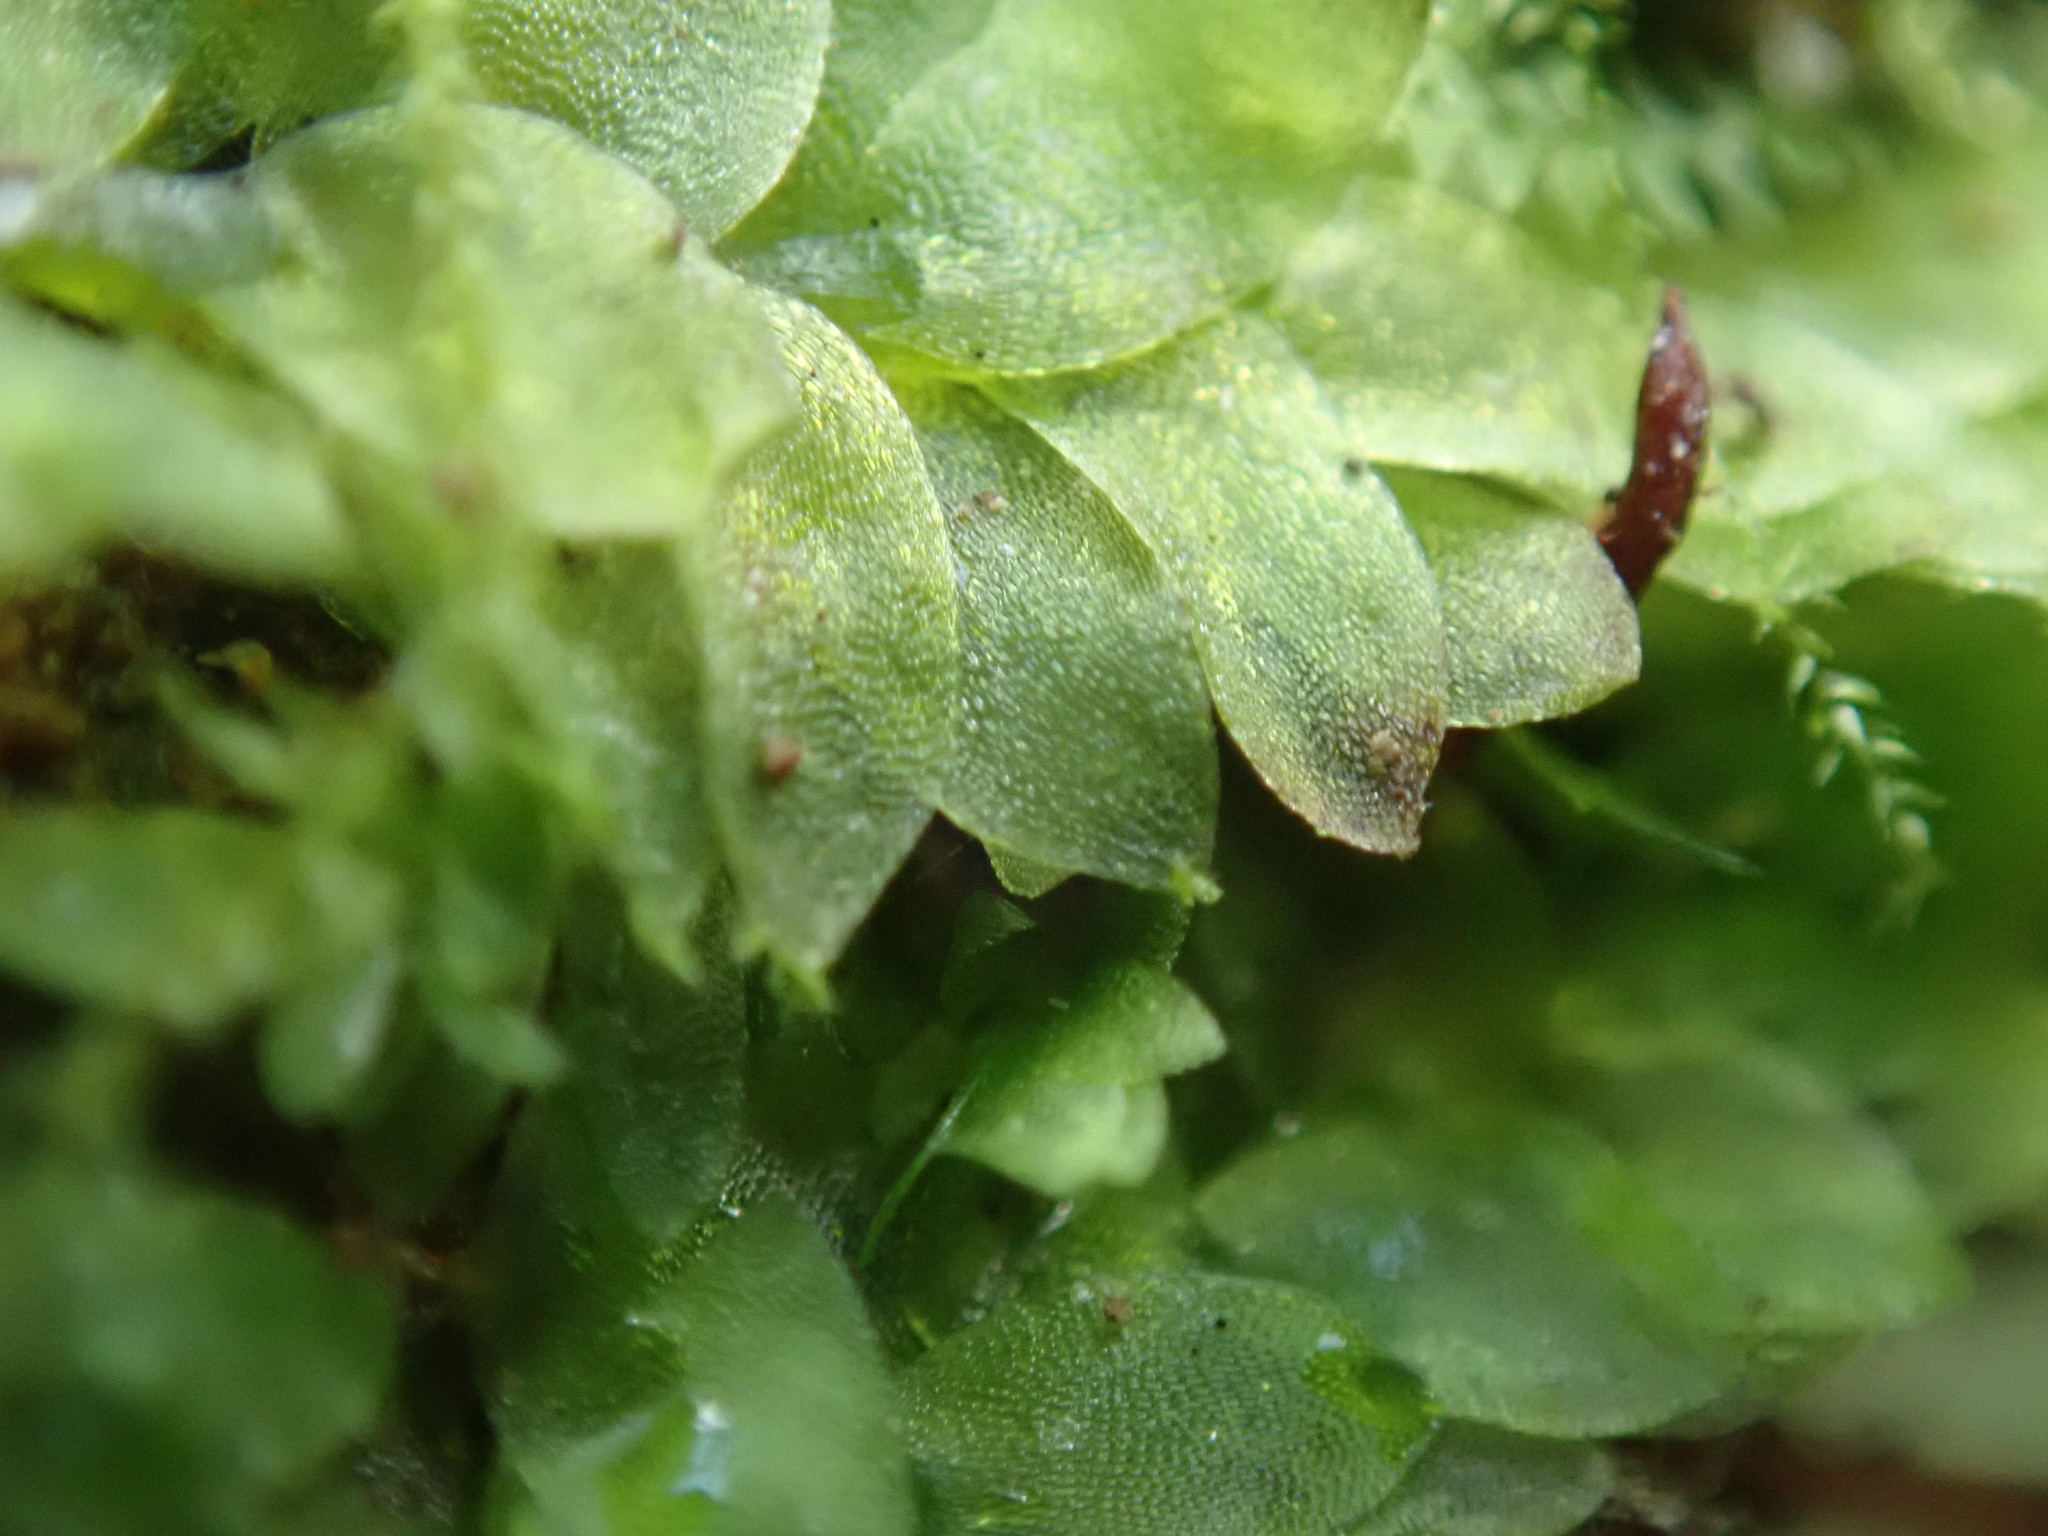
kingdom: Plantae
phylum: Bryophyta
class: Bryopsida
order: Hookeriales
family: Hookeriaceae
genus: Hookeria
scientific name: Hookeria lucens
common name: Shining hookeria
